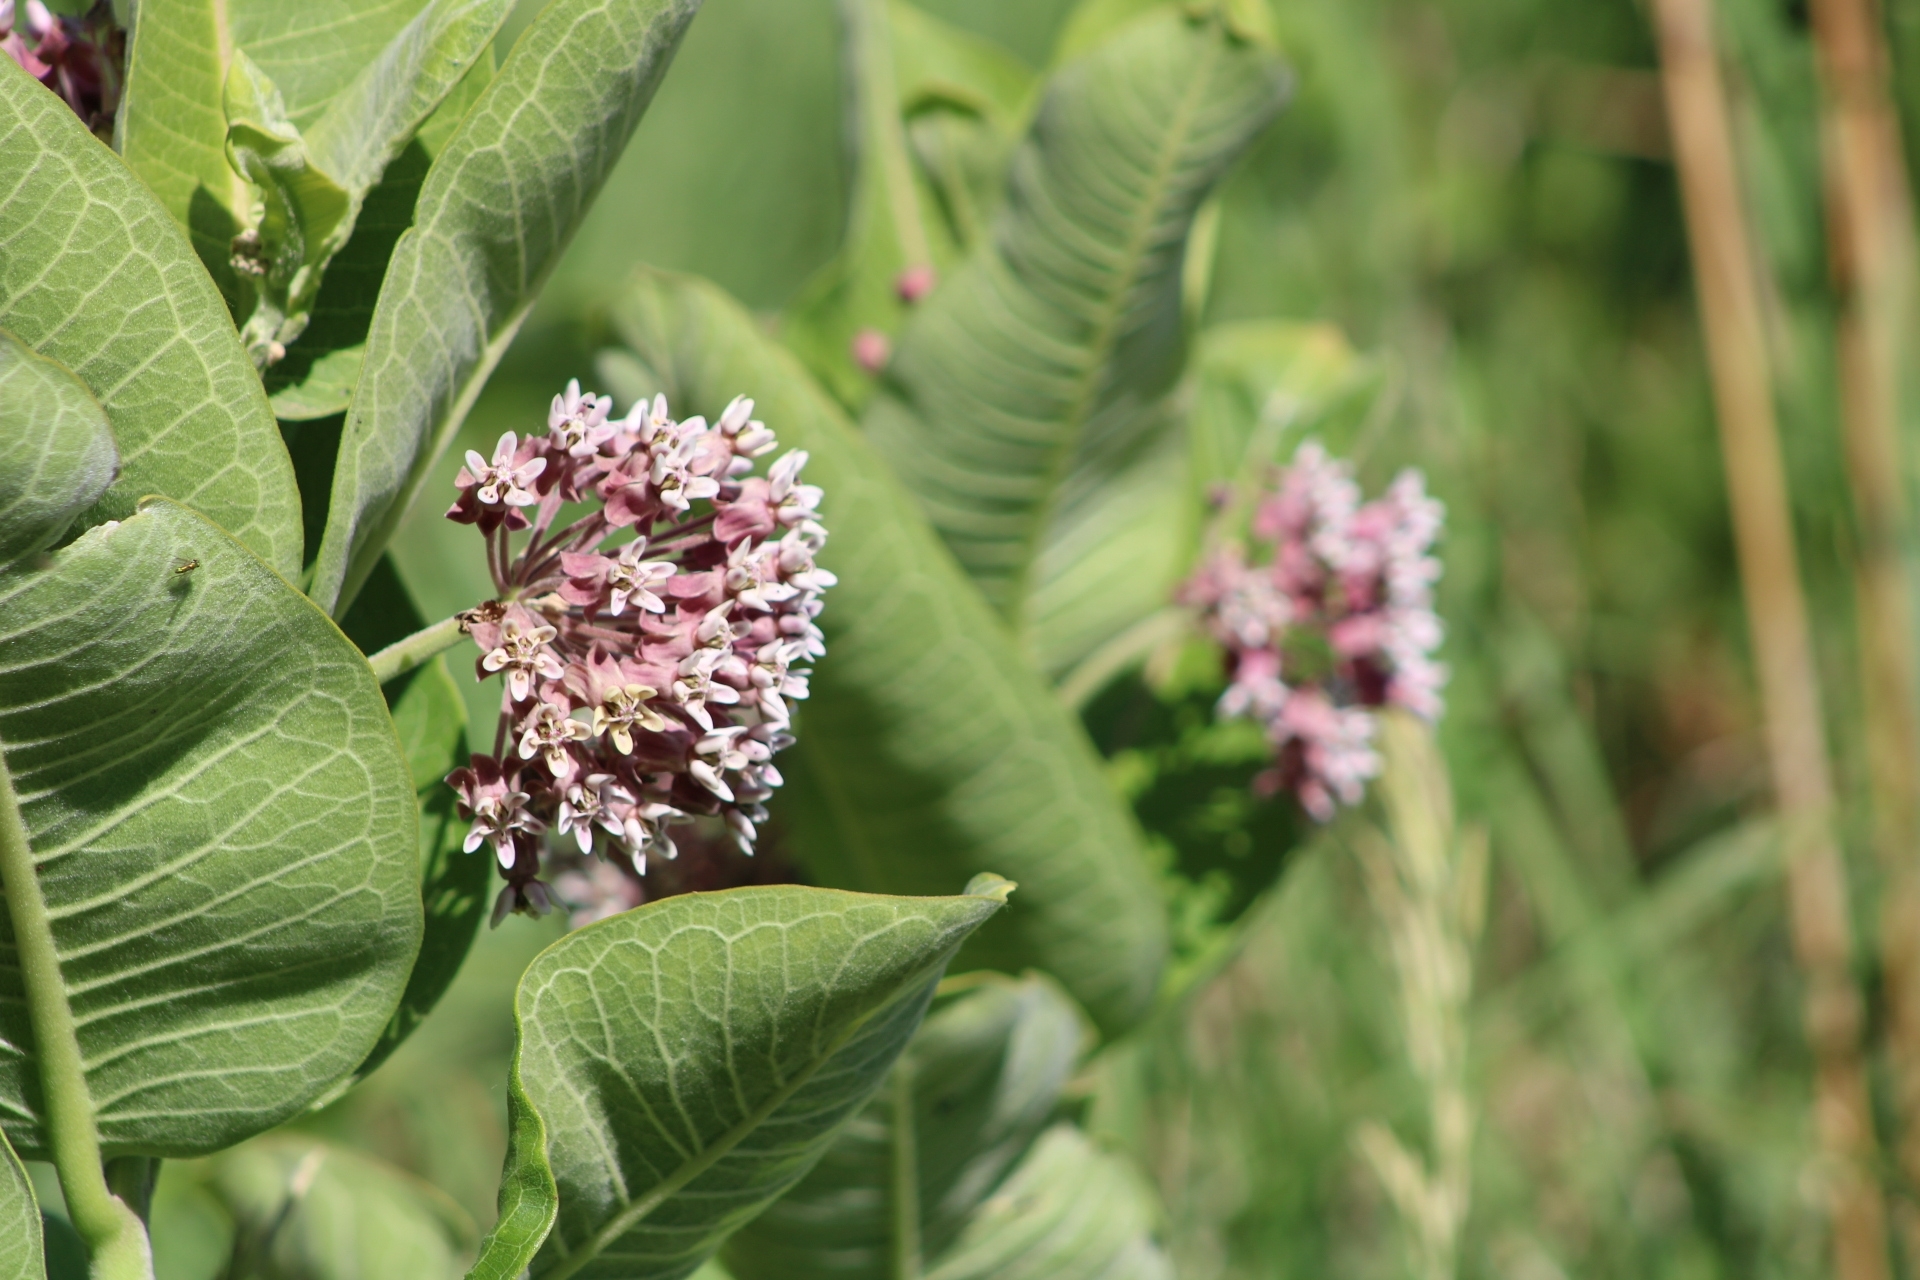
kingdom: Plantae
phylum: Tracheophyta
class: Magnoliopsida
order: Gentianales
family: Apocynaceae
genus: Asclepias
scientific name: Asclepias syriaca
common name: Common milkweed
